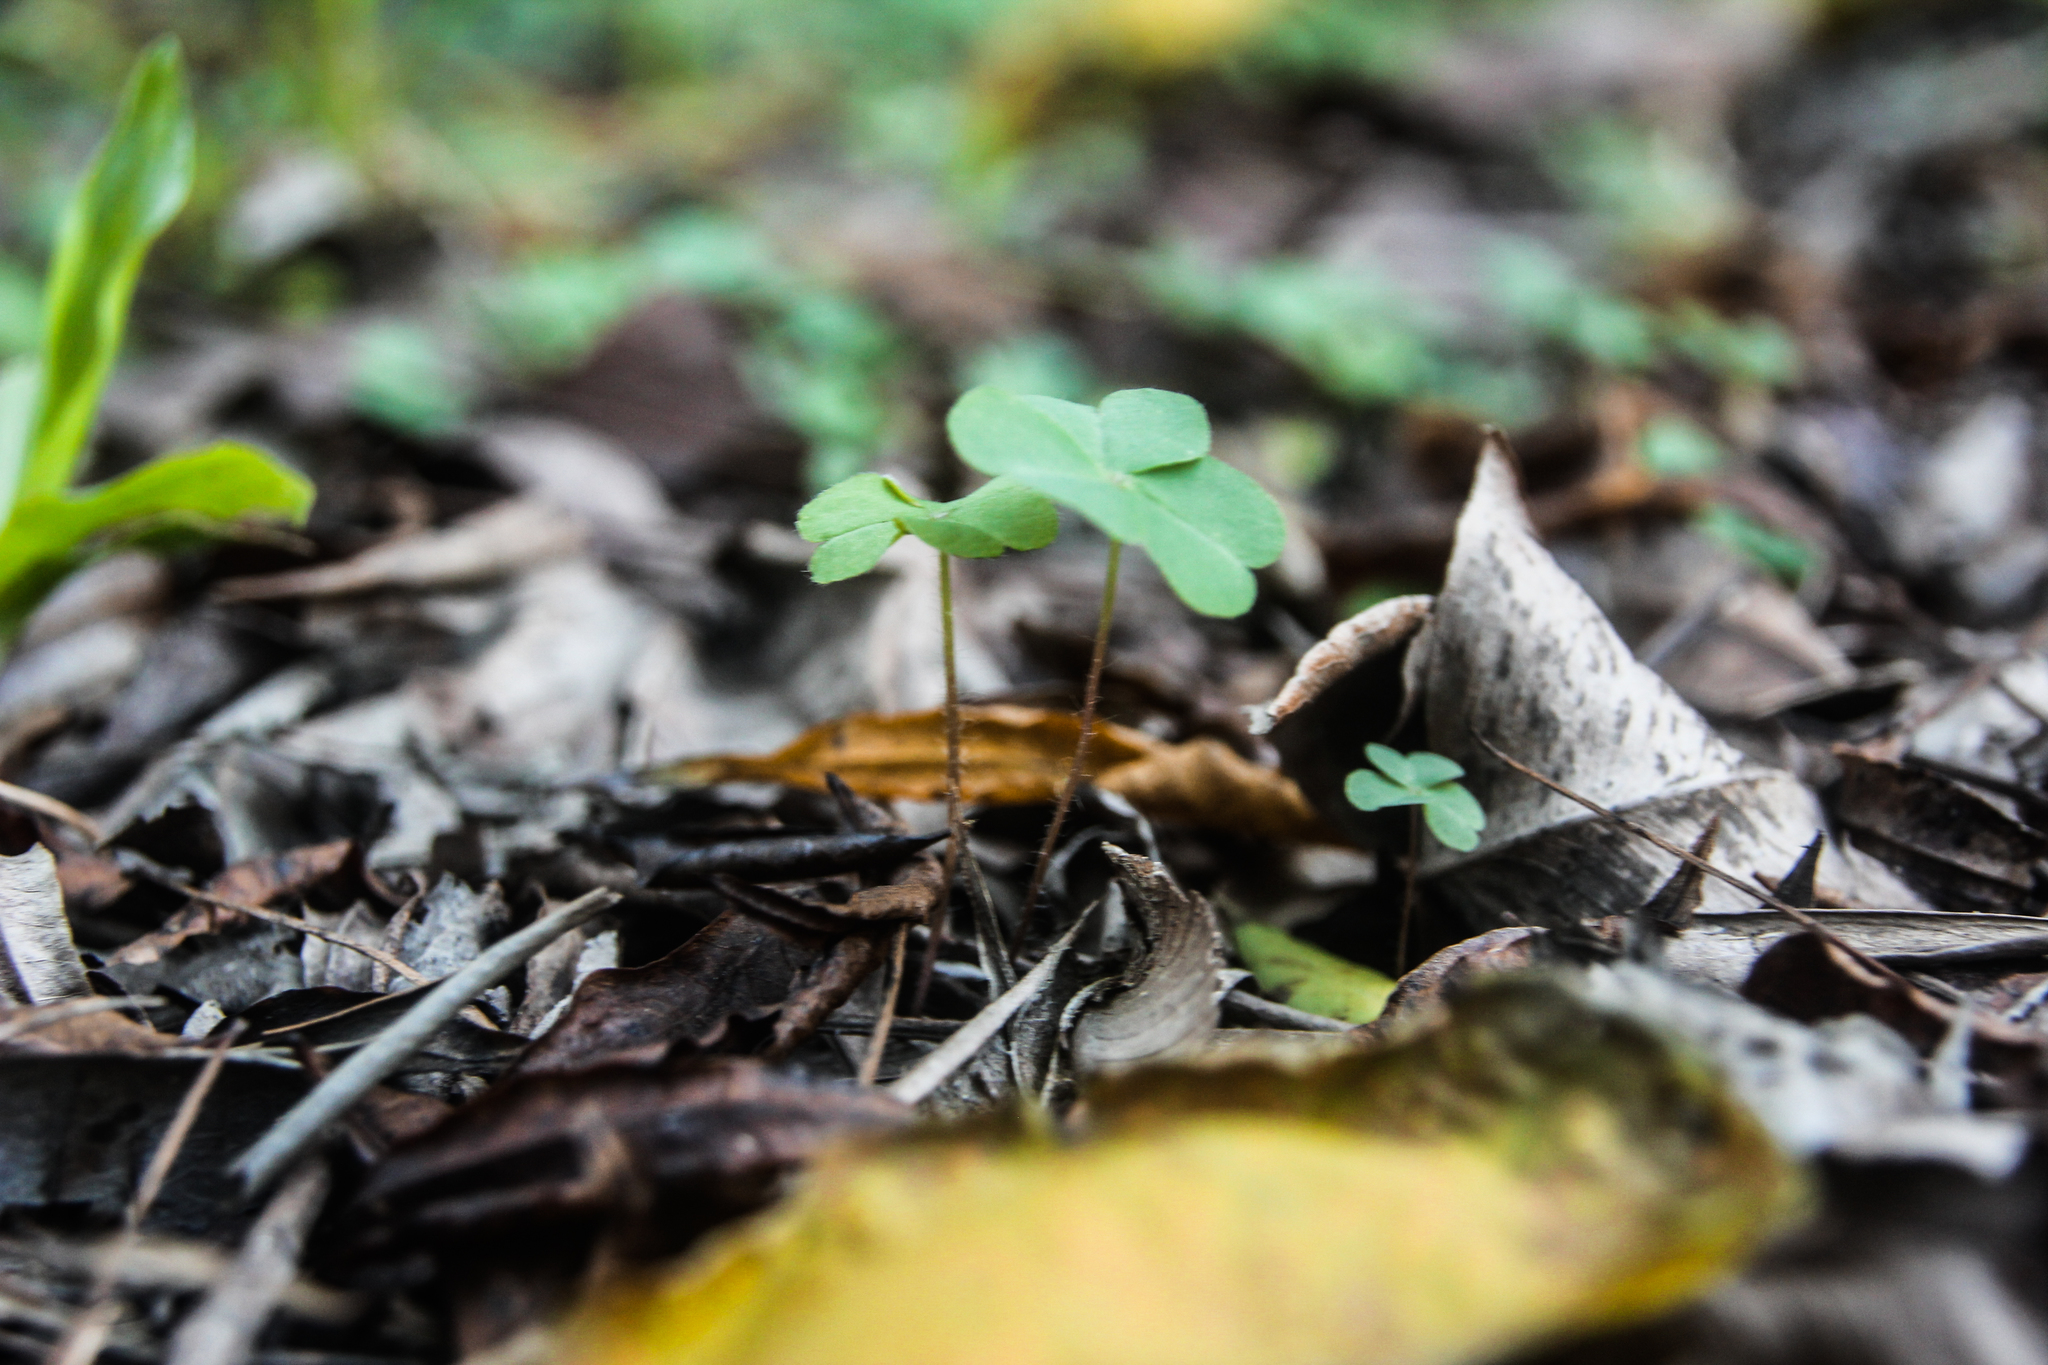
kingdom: Plantae
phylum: Tracheophyta
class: Magnoliopsida
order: Oxalidales
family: Oxalidaceae
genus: Oxalis
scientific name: Oxalis debilis
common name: Large-flowered pink-sorrel
